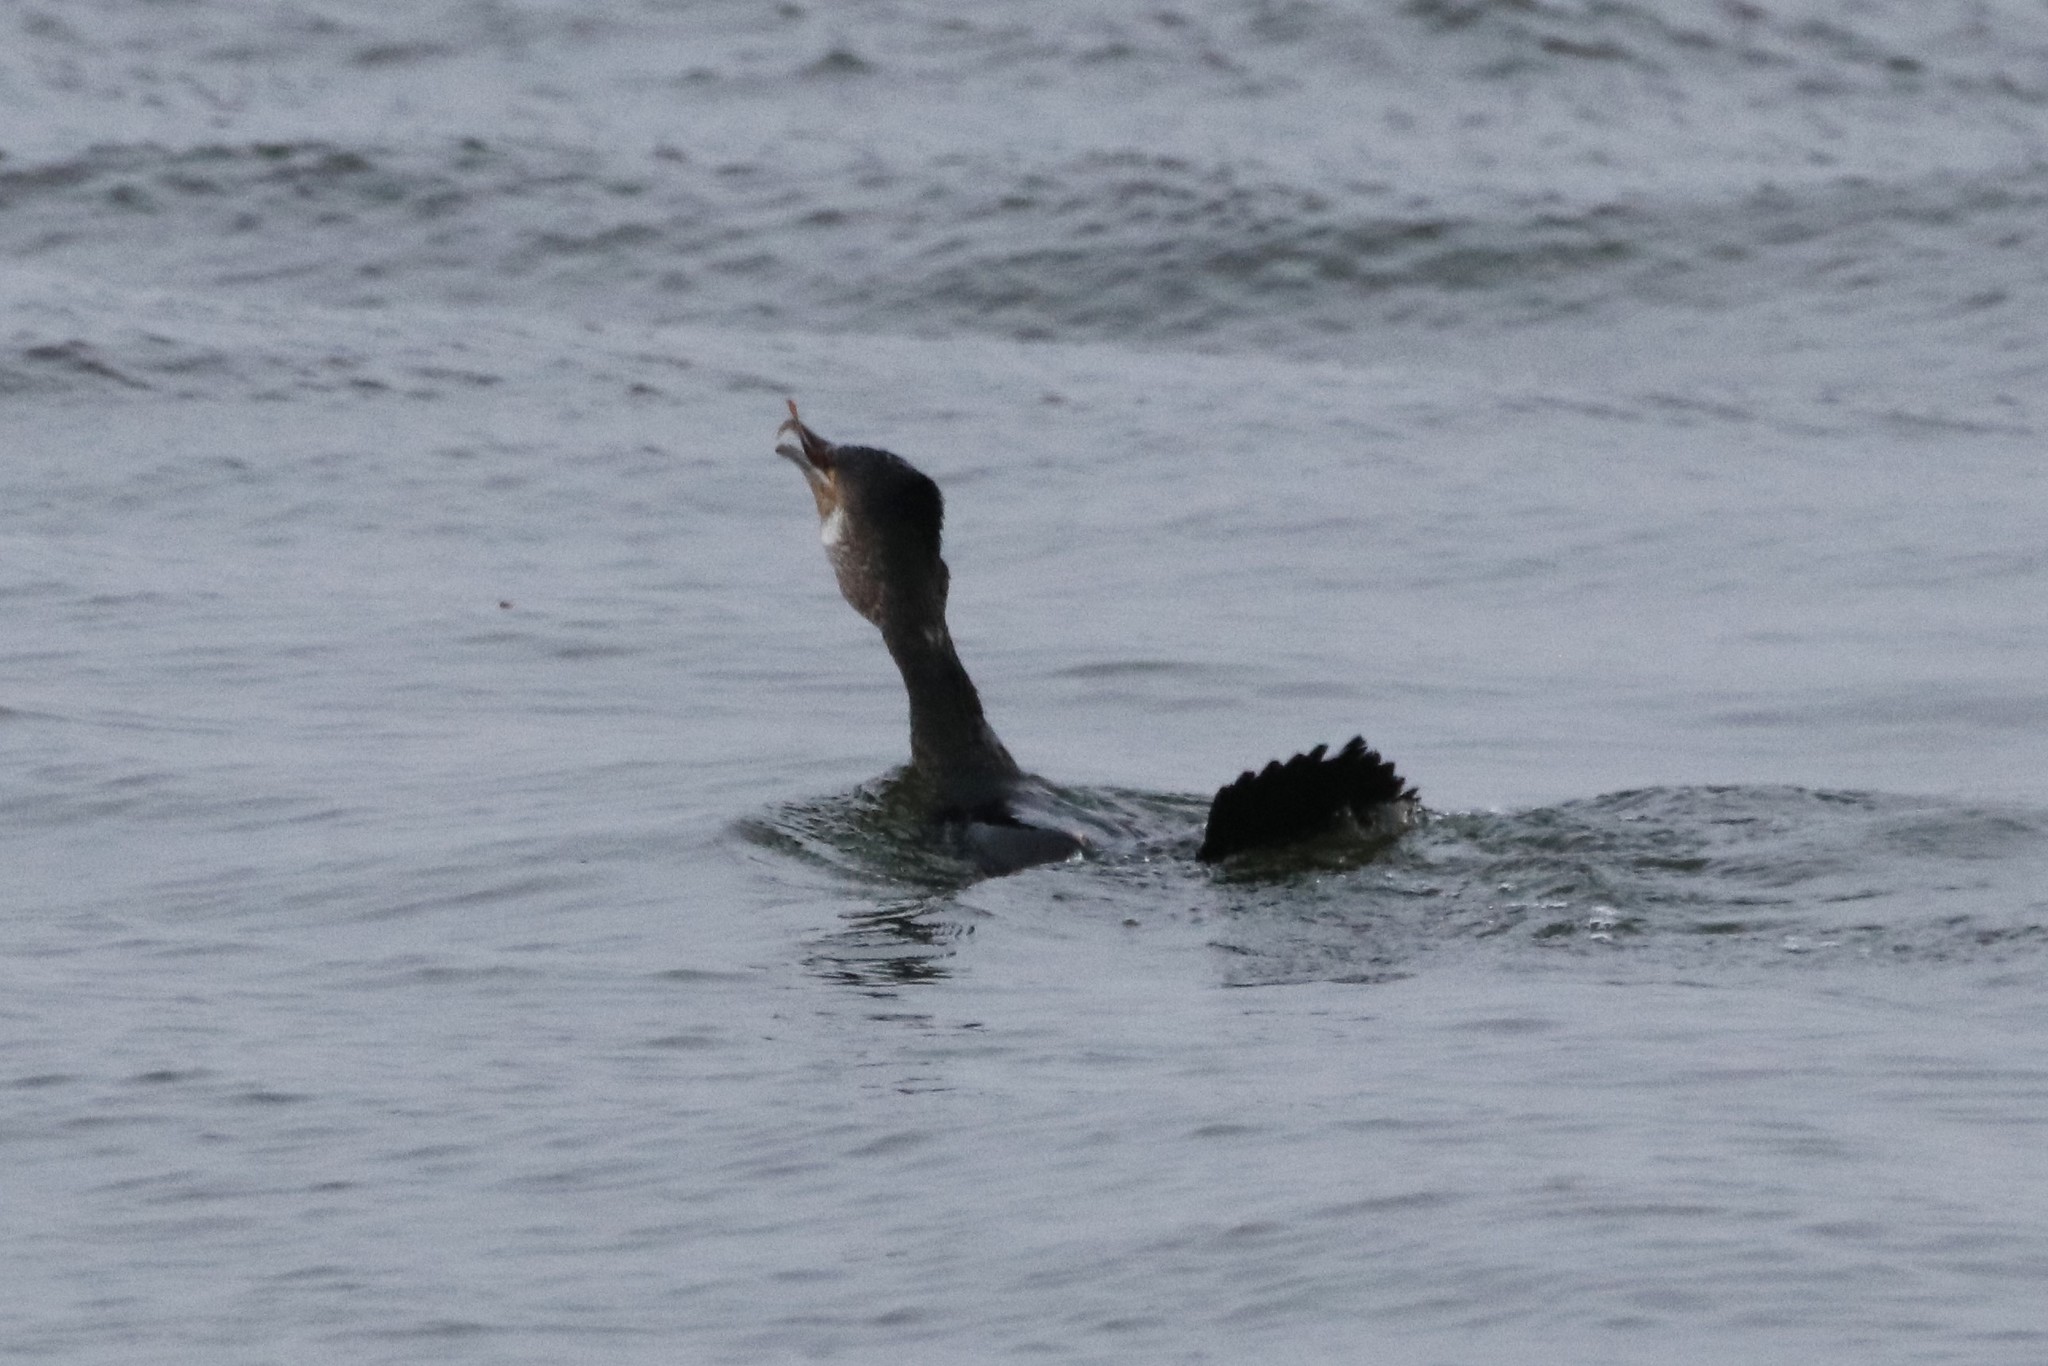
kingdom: Animalia
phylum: Chordata
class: Aves
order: Suliformes
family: Phalacrocoracidae
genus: Phalacrocorax
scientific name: Phalacrocorax carbo
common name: Great cormorant
